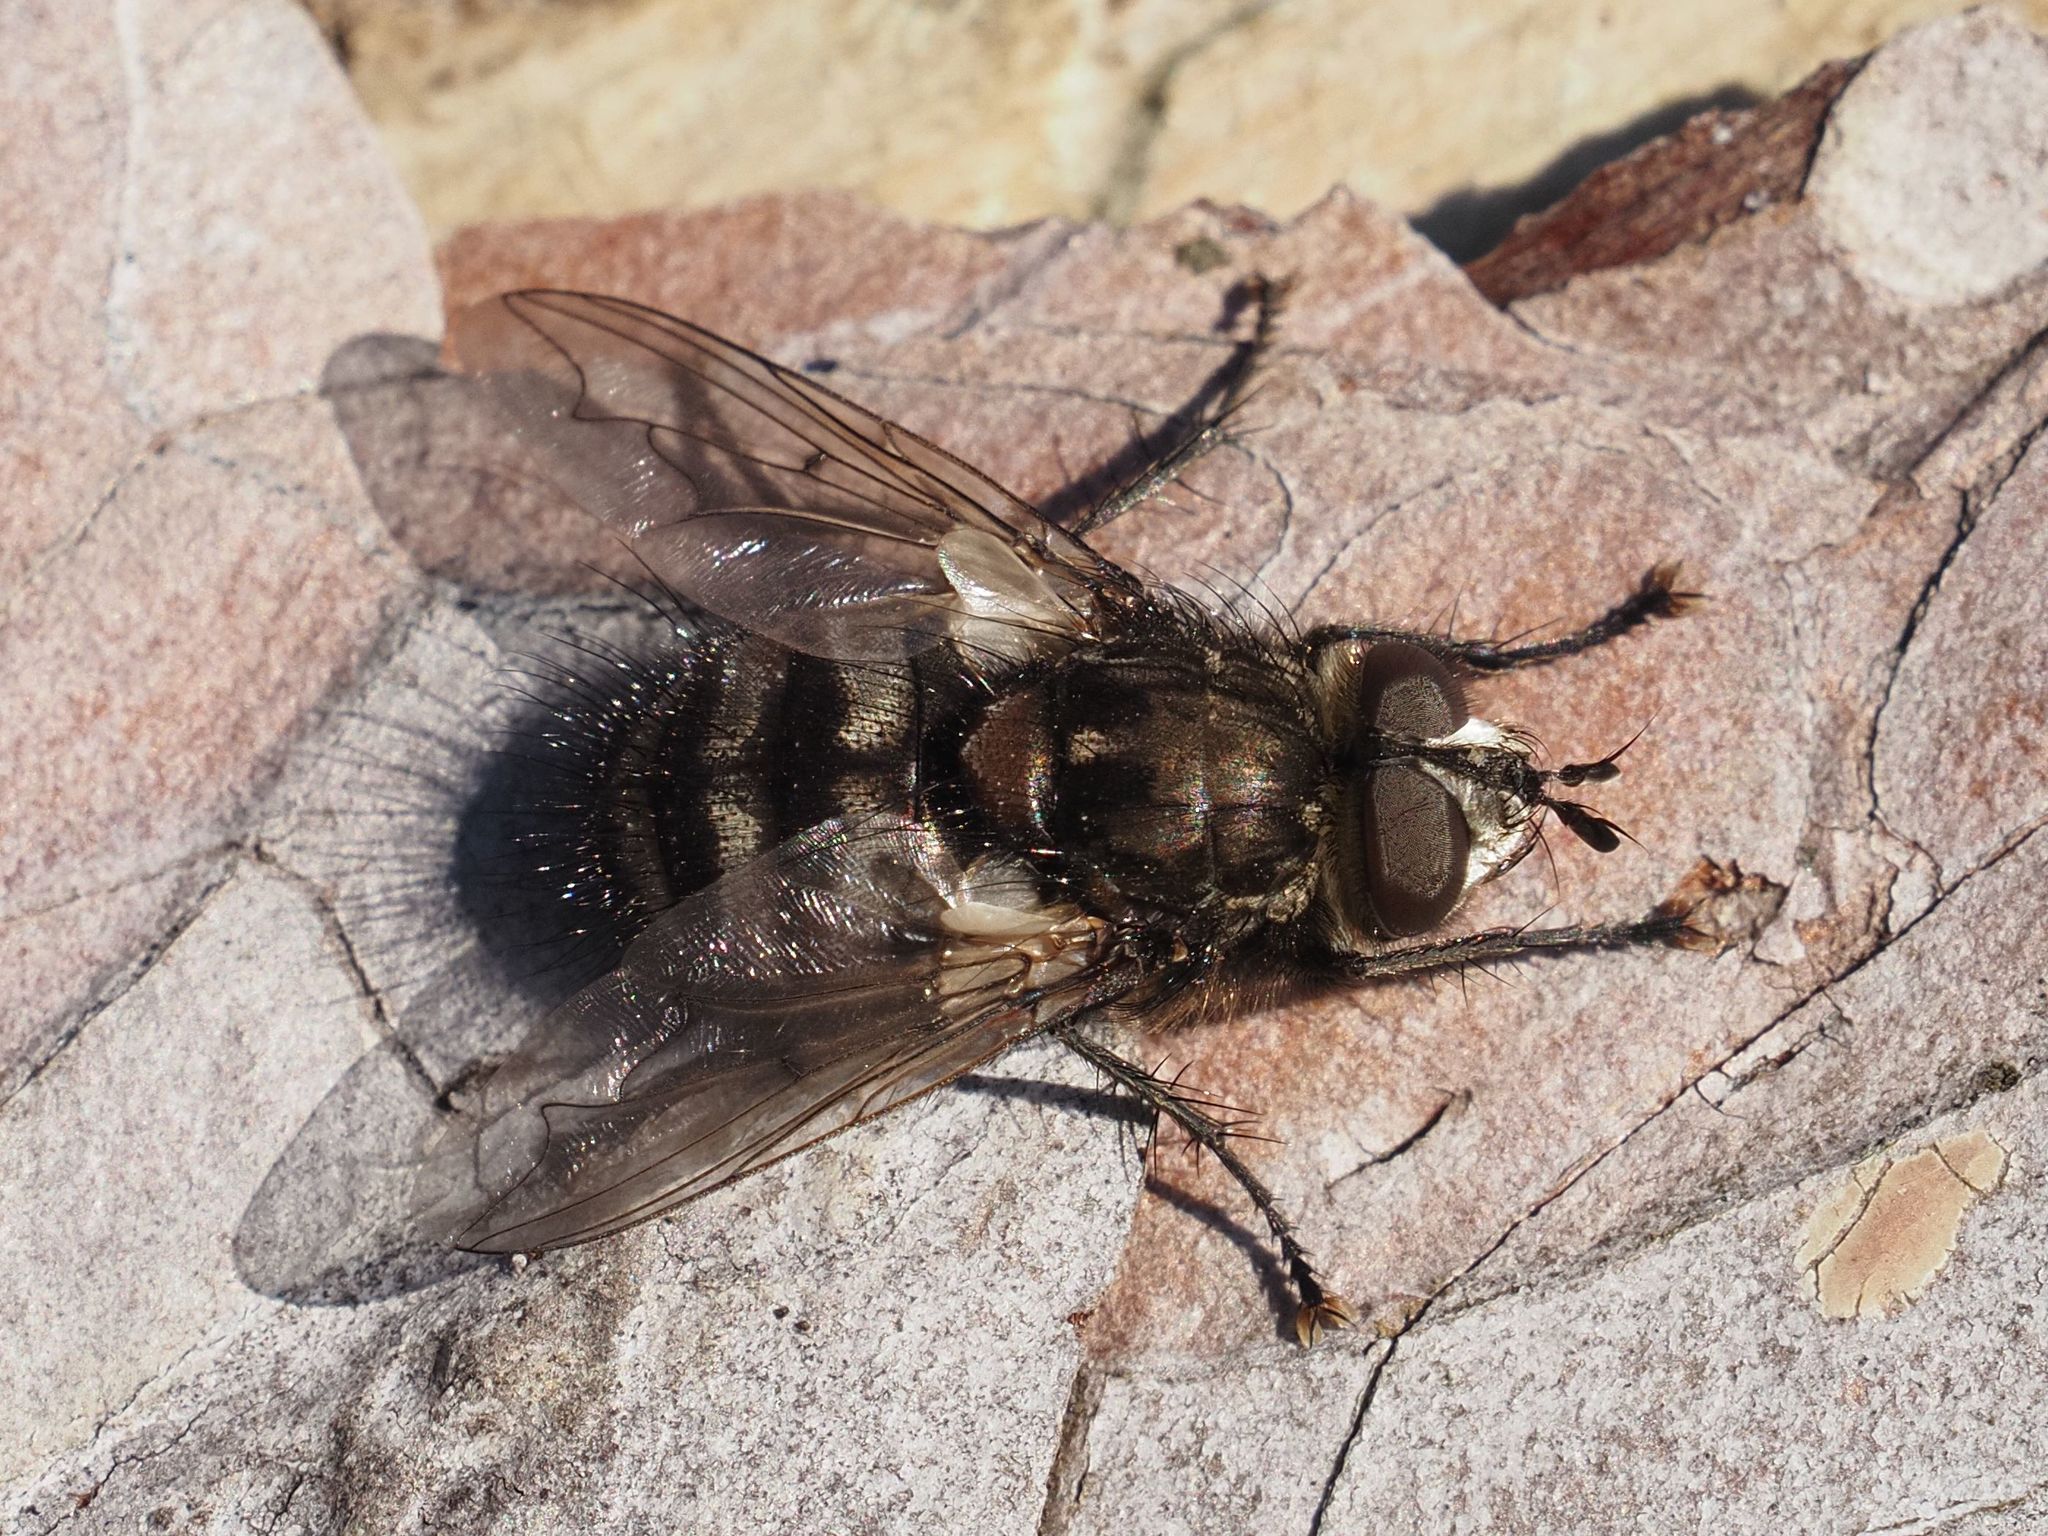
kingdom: Animalia
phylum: Arthropoda
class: Insecta
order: Diptera
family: Tachinidae
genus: Panzeria
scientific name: Panzeria puparum
